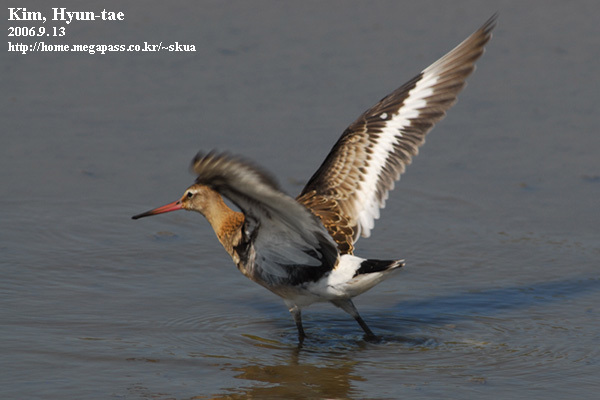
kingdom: Animalia
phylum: Chordata
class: Aves
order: Charadriiformes
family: Scolopacidae
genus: Limosa
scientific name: Limosa limosa
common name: Black-tailed godwit
